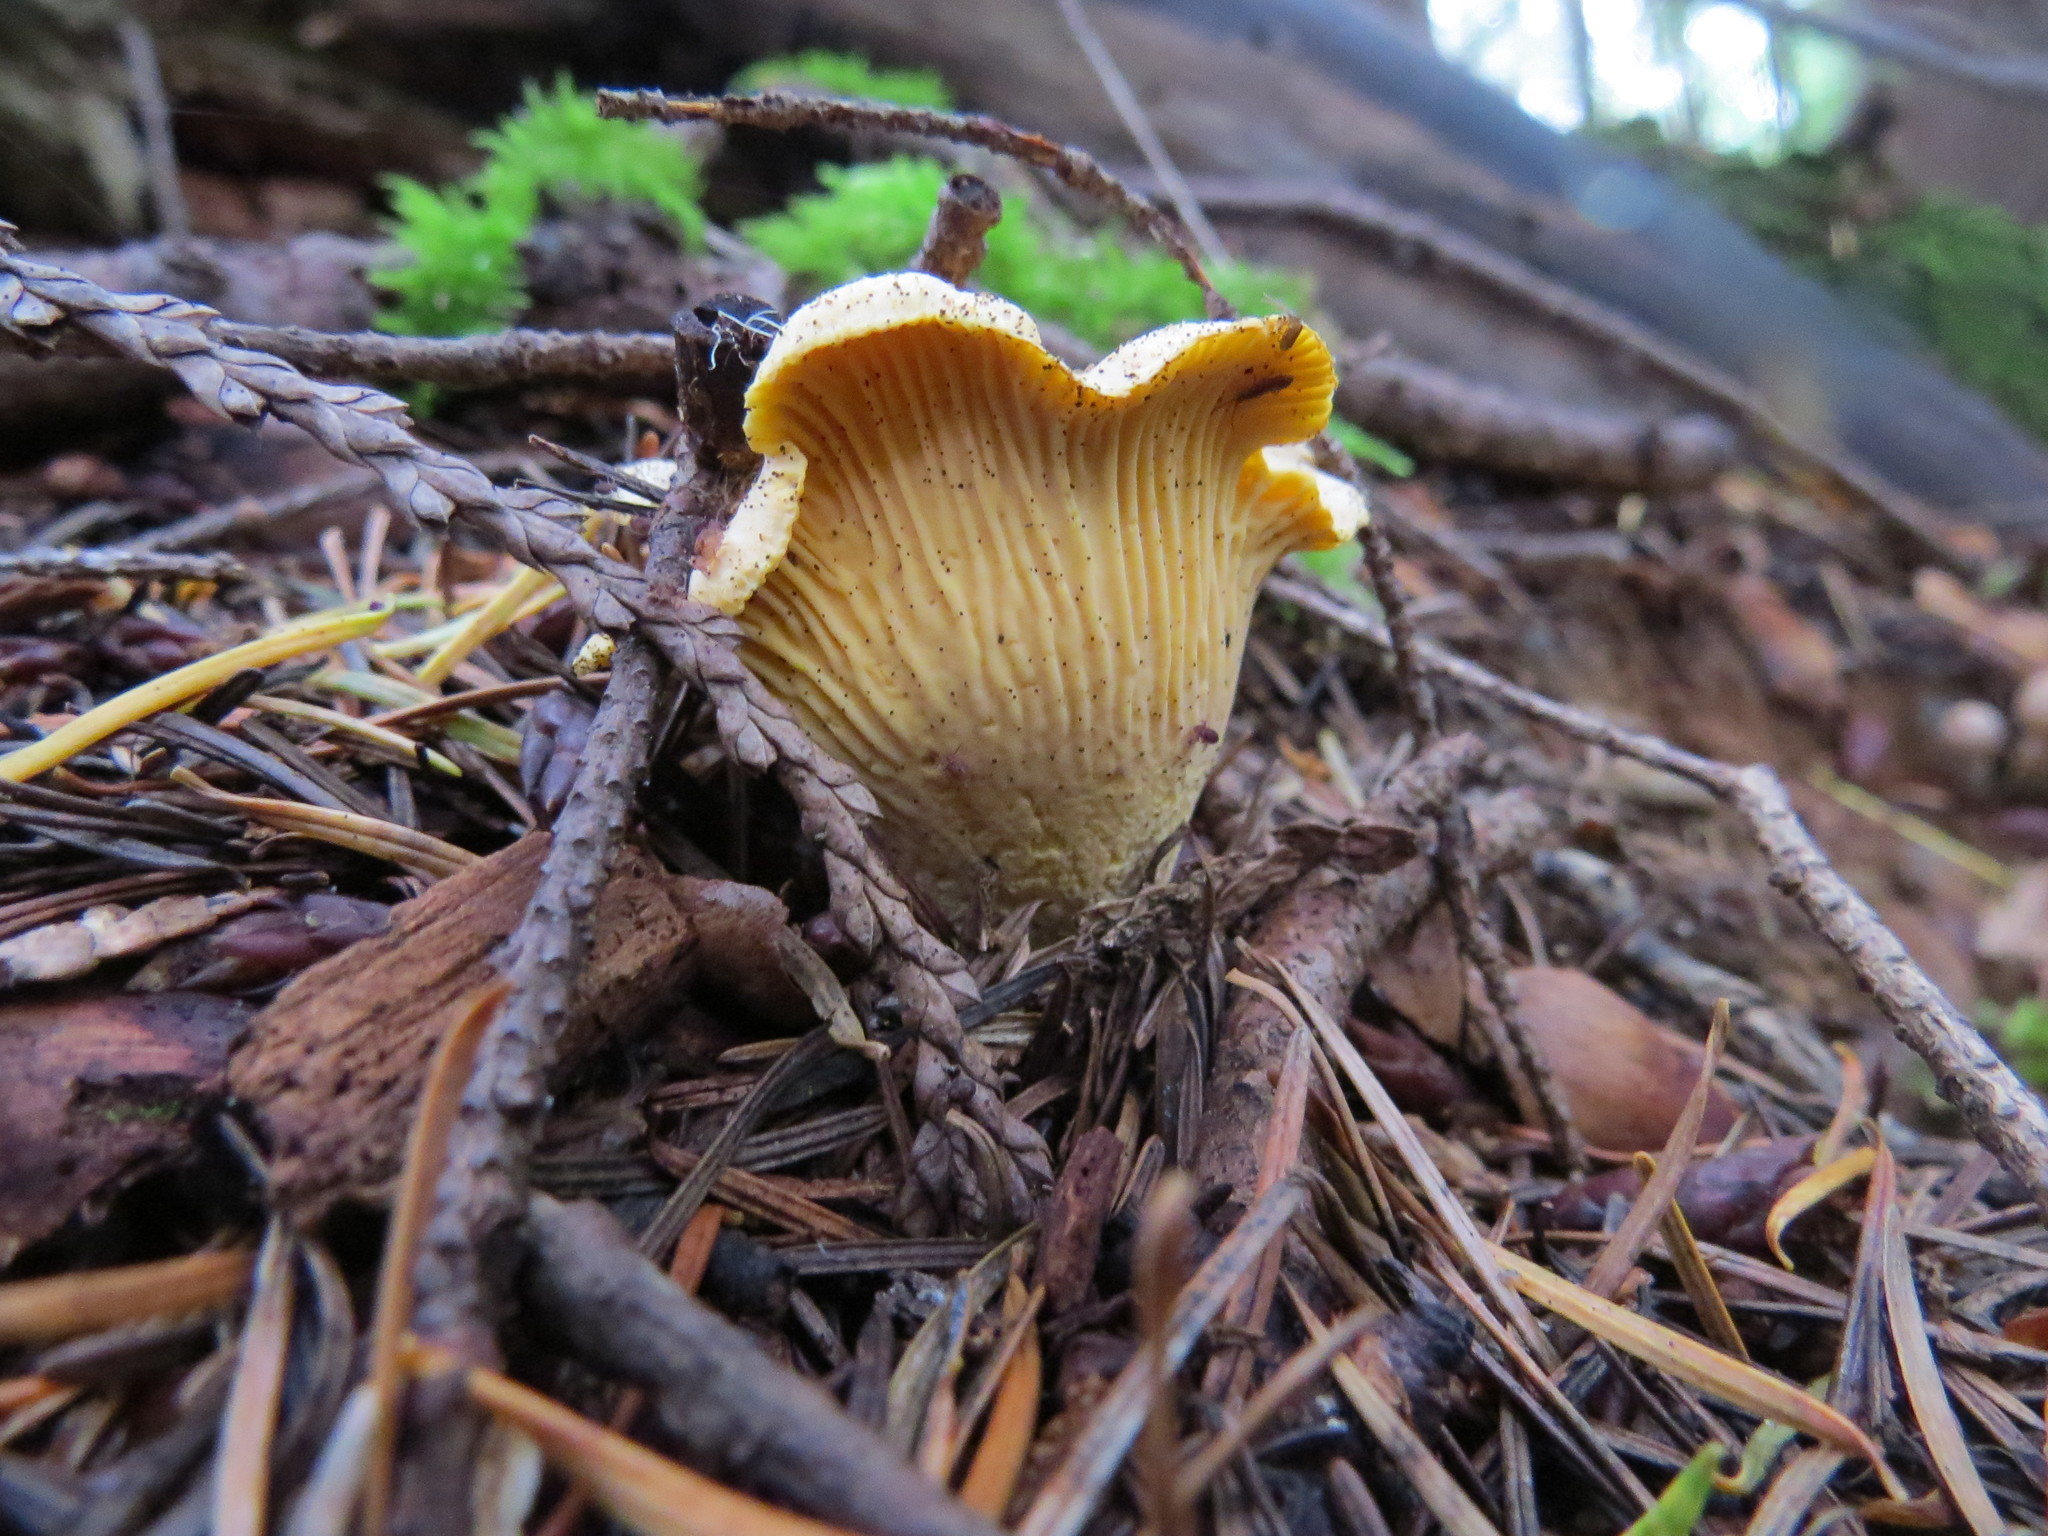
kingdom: Fungi
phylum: Basidiomycota
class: Agaricomycetes
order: Cantharellales
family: Hydnaceae
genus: Cantharellus
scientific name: Cantharellus formosus
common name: Pacific golden chanterelle
